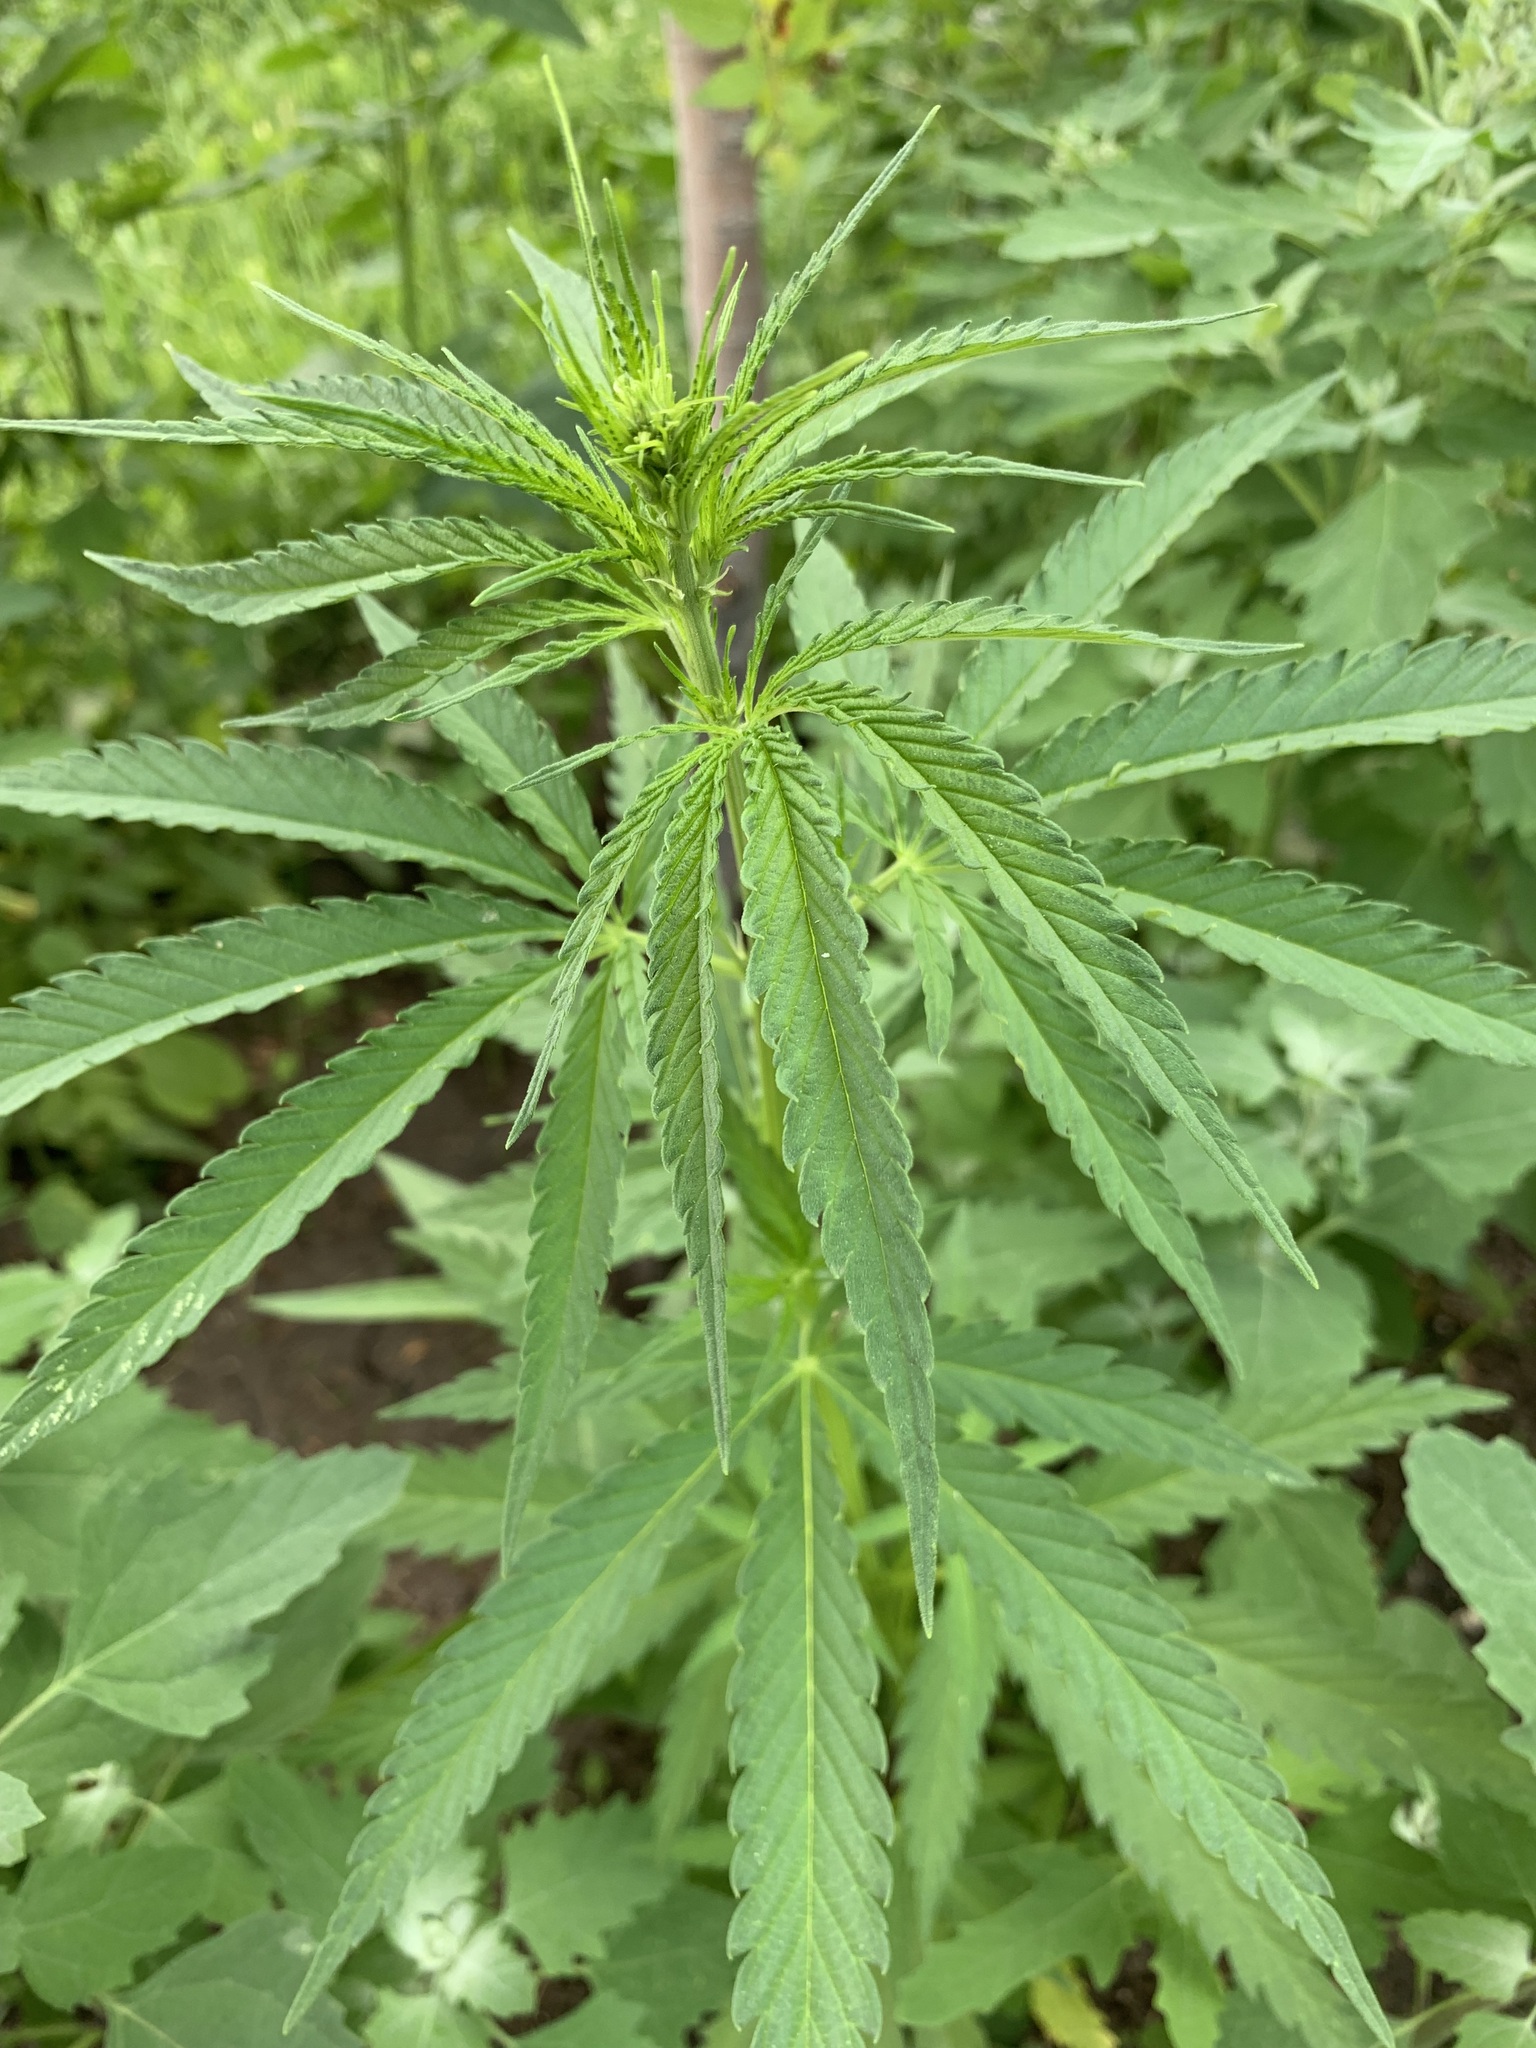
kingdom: Plantae
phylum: Tracheophyta
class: Magnoliopsida
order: Rosales
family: Cannabaceae
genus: Cannabis
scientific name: Cannabis sativa
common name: Hemp
